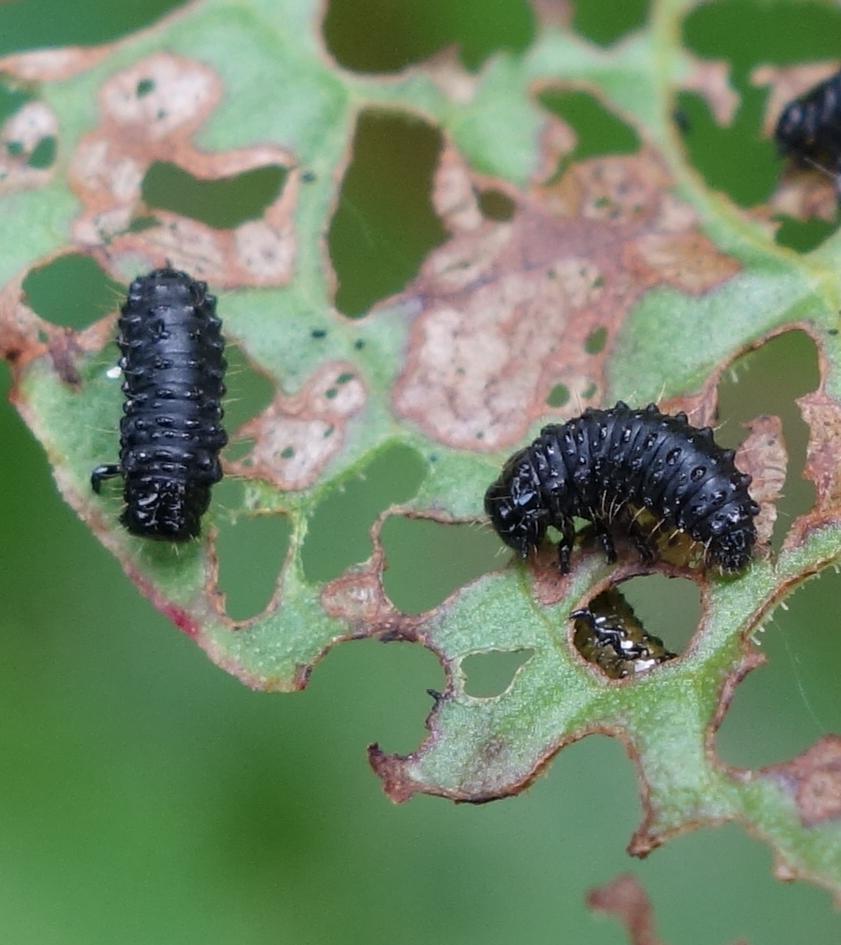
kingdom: Animalia
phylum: Arthropoda
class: Insecta
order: Coleoptera
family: Chrysomelidae
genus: Gastrophysa
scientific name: Gastrophysa viridula
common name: Green dock beetle
